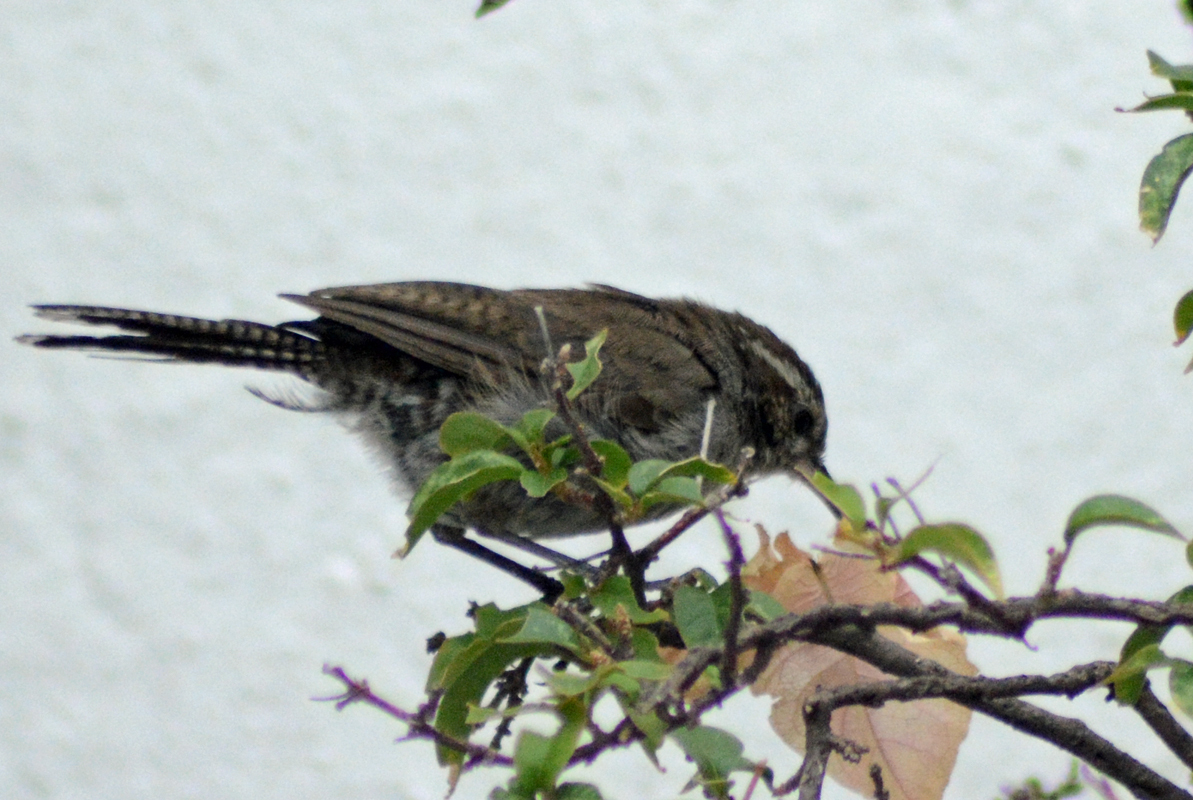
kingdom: Animalia
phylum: Chordata
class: Aves
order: Passeriformes
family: Troglodytidae
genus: Thryomanes
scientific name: Thryomanes bewickii
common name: Bewick's wren
